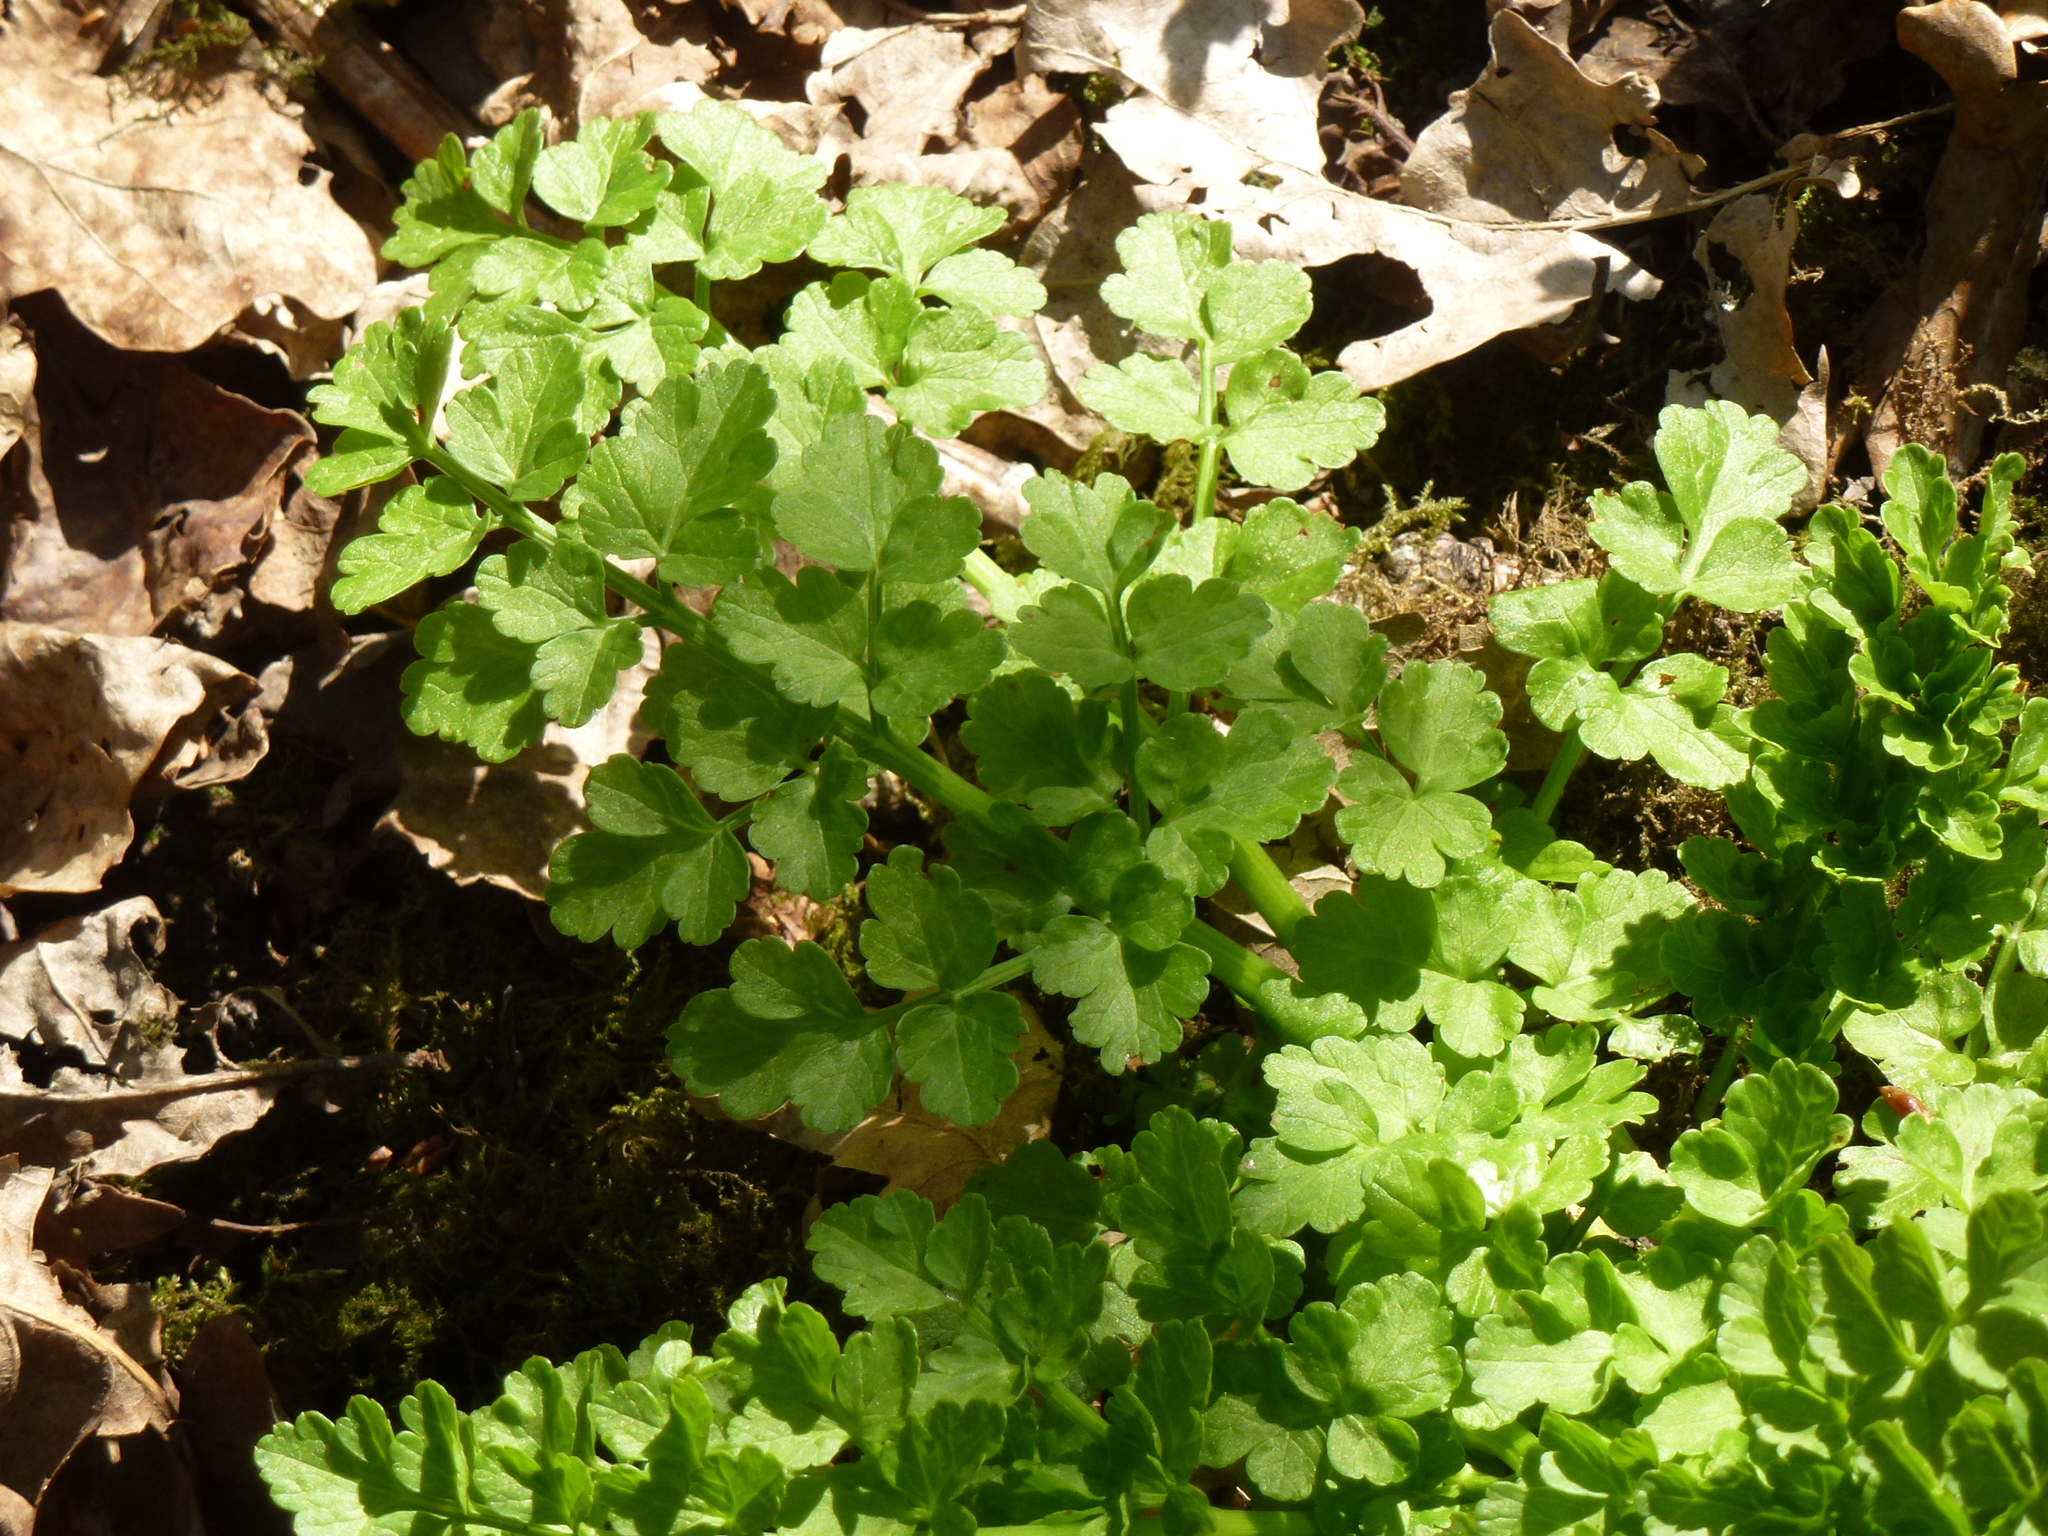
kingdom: Plantae
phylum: Tracheophyta
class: Magnoliopsida
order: Apiales
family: Apiaceae
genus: Oenanthe
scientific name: Oenanthe crocata
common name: Hemlock water-dropwort
